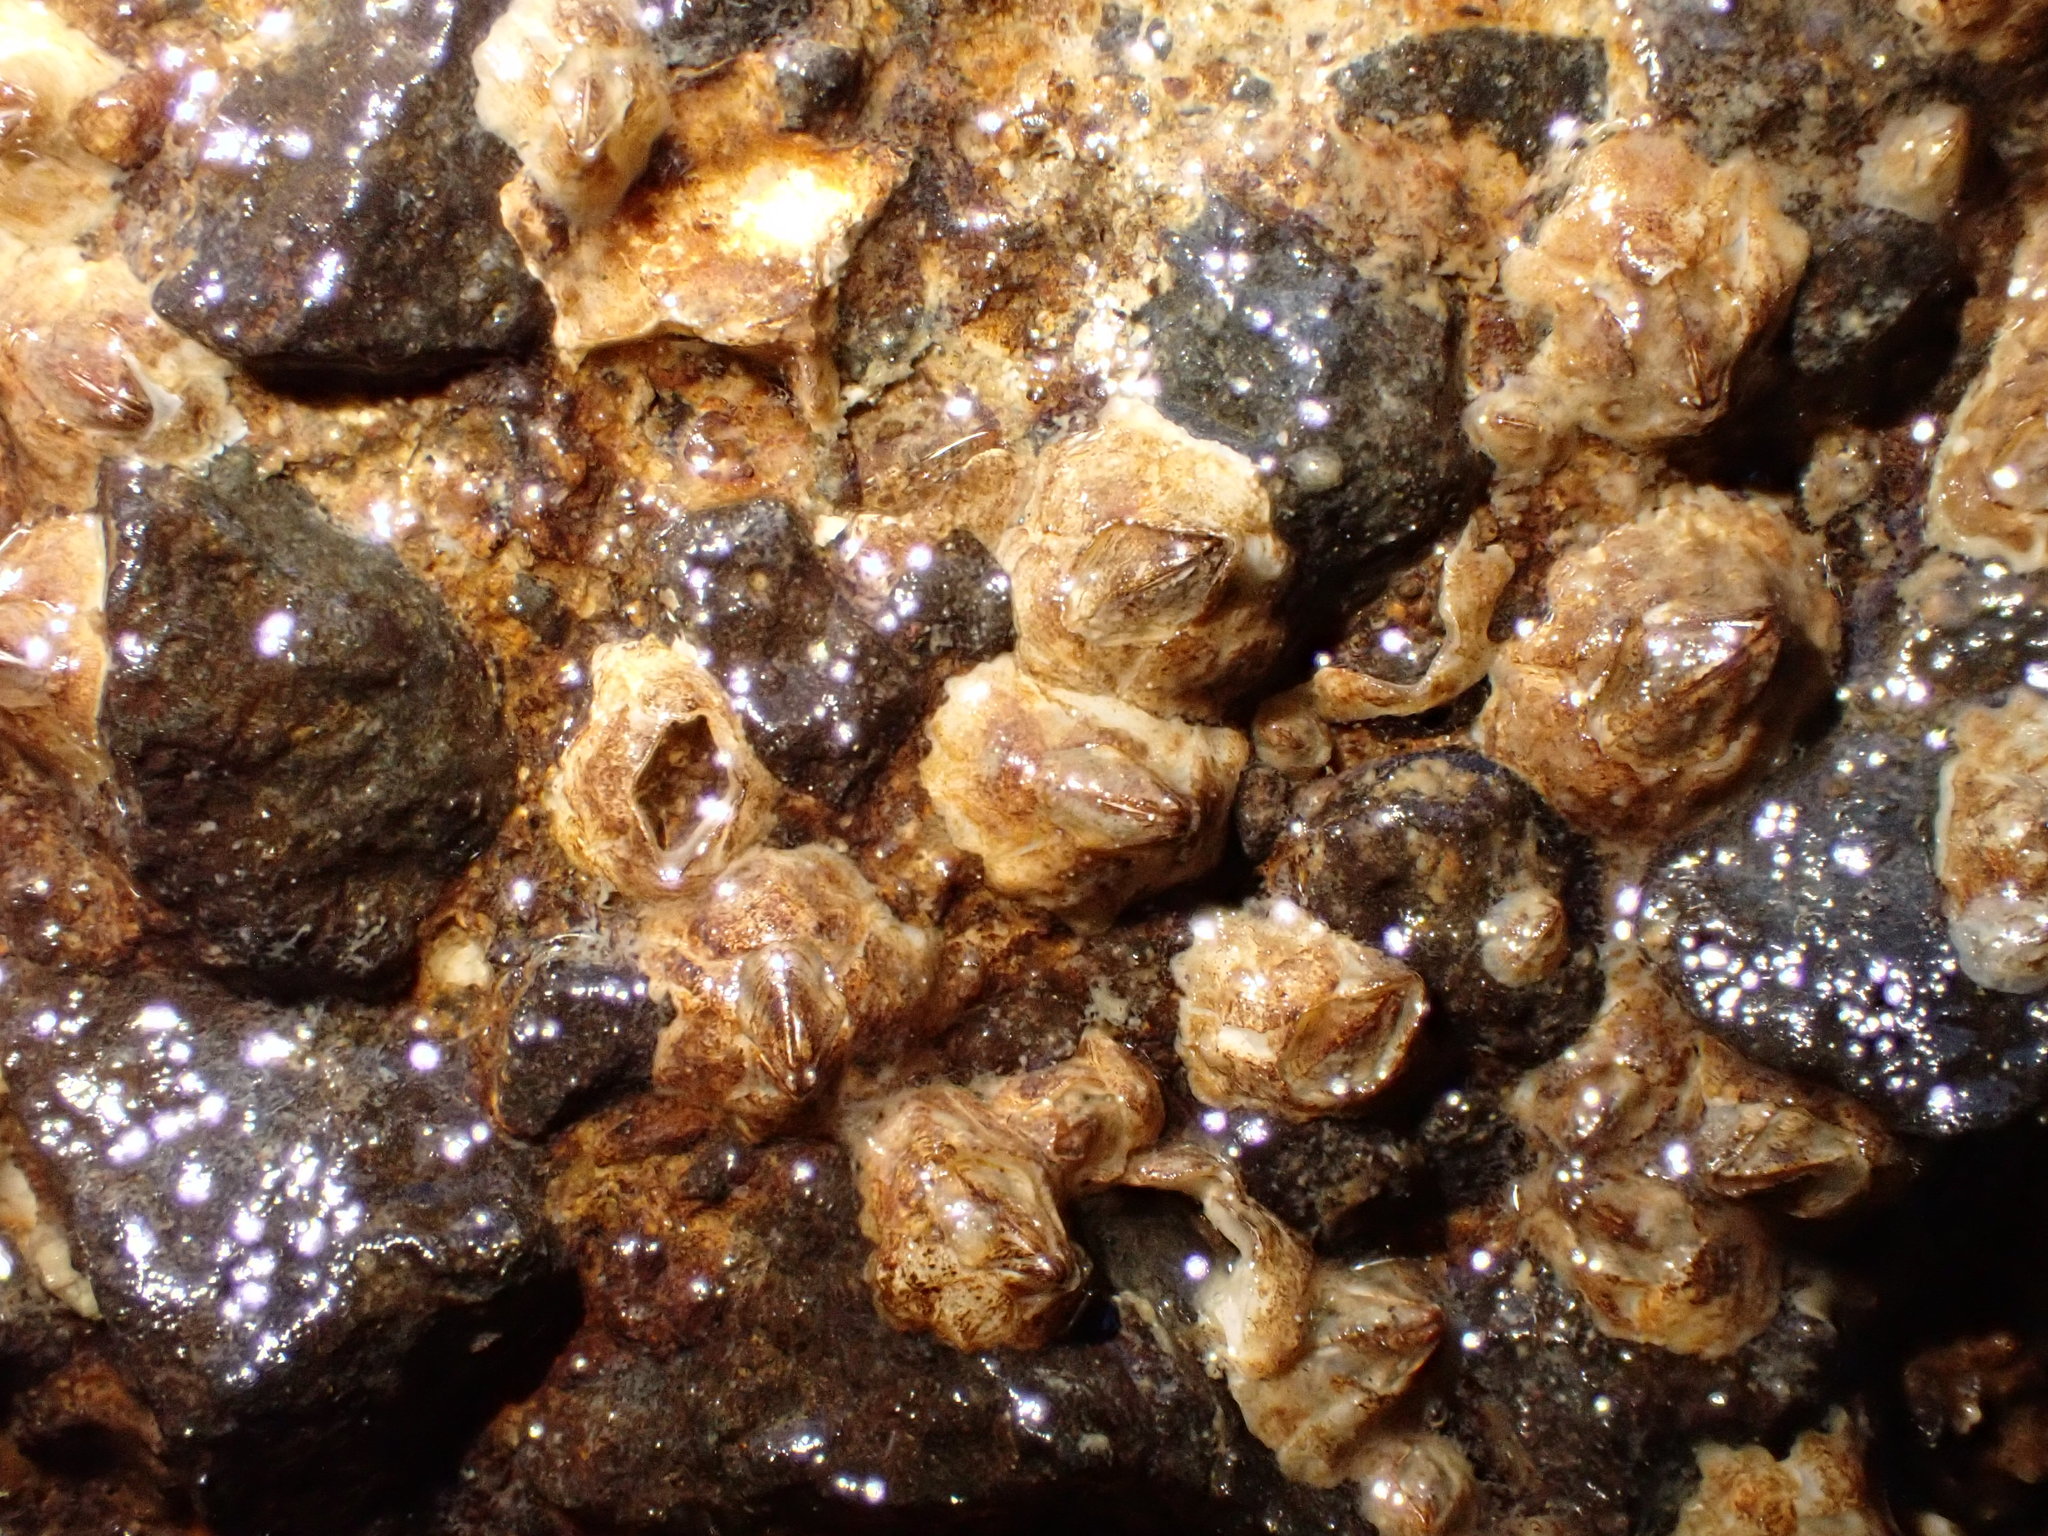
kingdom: Animalia
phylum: Arthropoda
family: Elminiidae
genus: Austrominius
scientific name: Austrominius modestus
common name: Australasian barnacle
